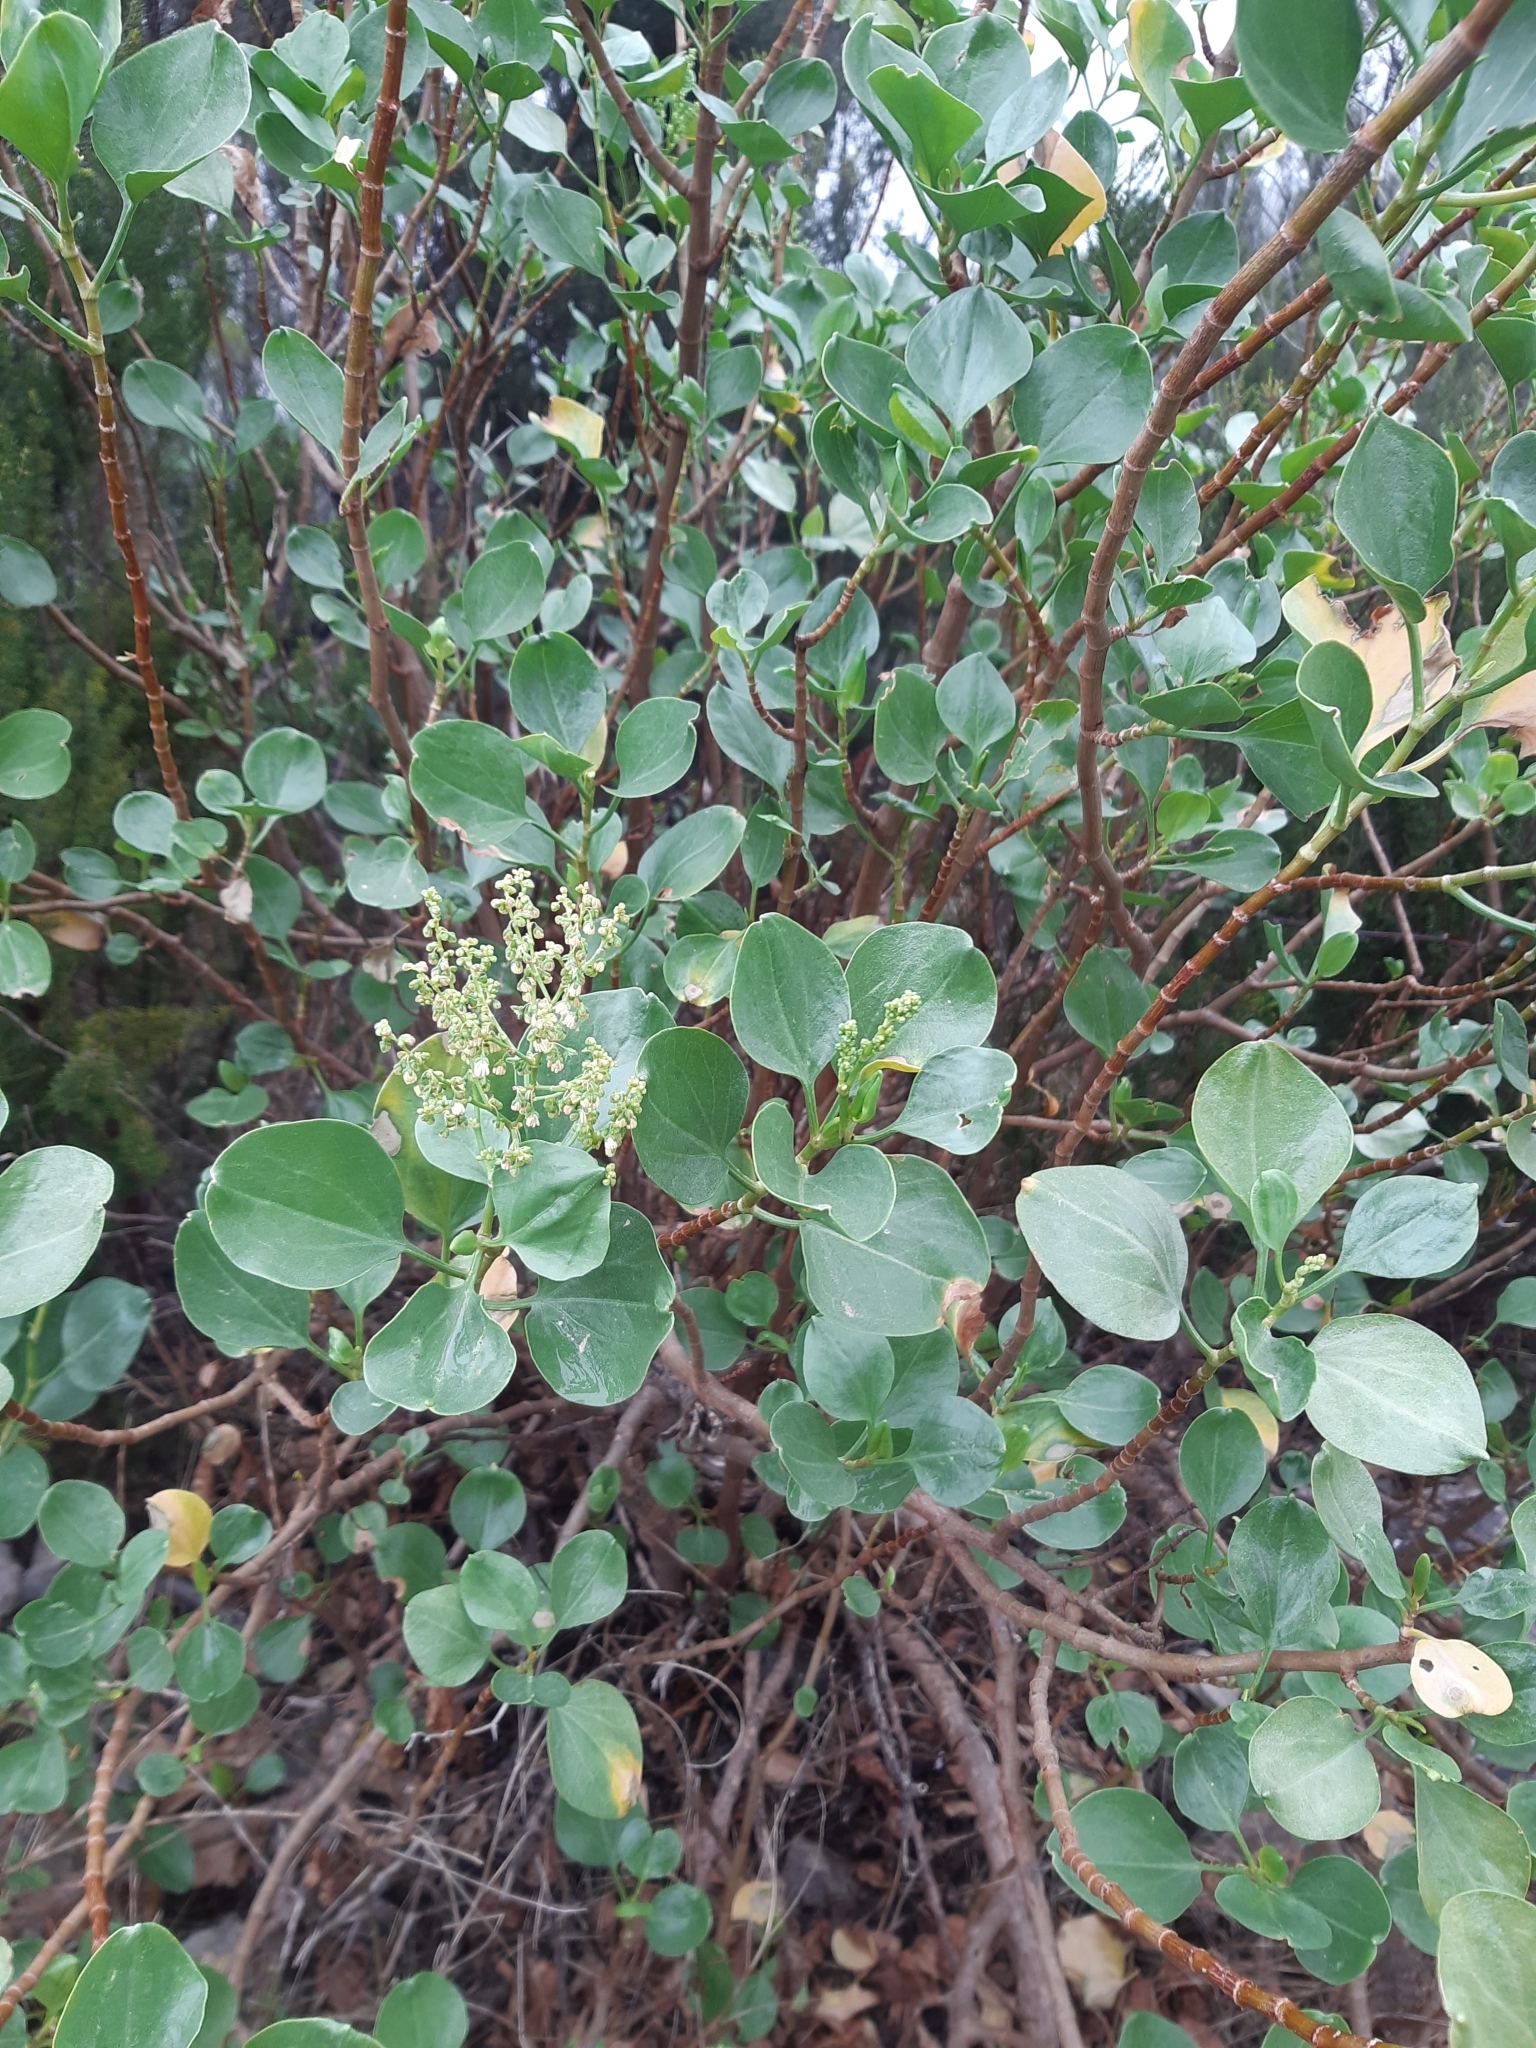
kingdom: Plantae
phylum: Tracheophyta
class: Magnoliopsida
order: Caryophyllales
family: Polygonaceae
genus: Rumex
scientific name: Rumex lunaria
